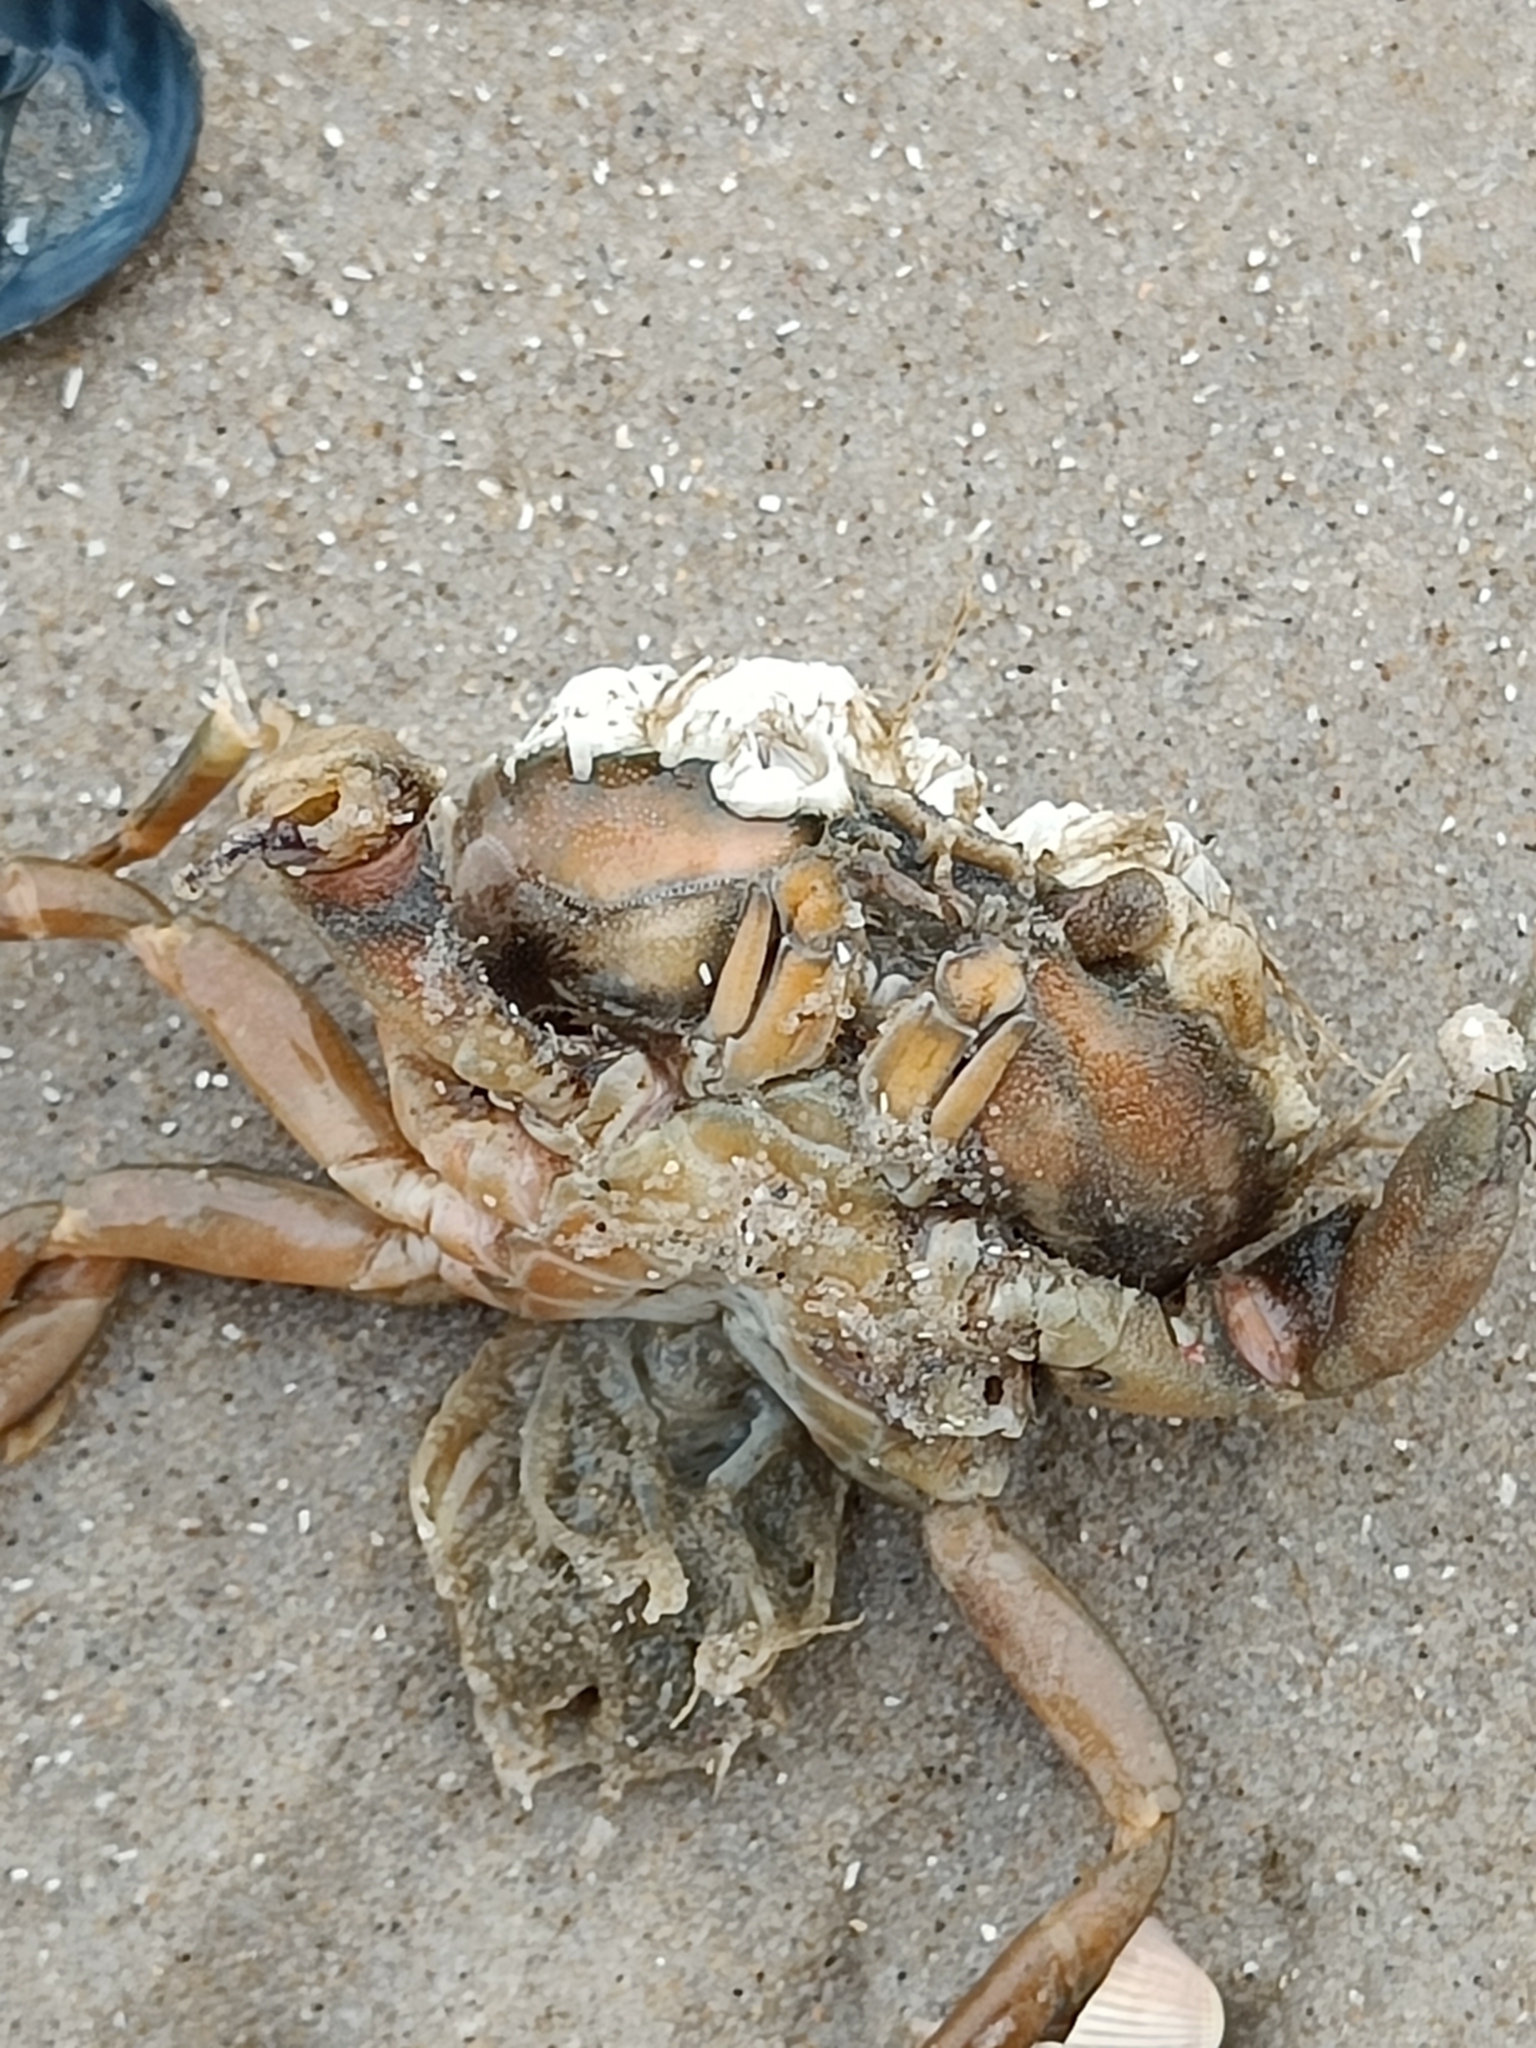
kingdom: Animalia
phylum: Arthropoda
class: Malacostraca
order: Decapoda
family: Carcinidae
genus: Carcinus
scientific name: Carcinus maenas
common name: European green crab
